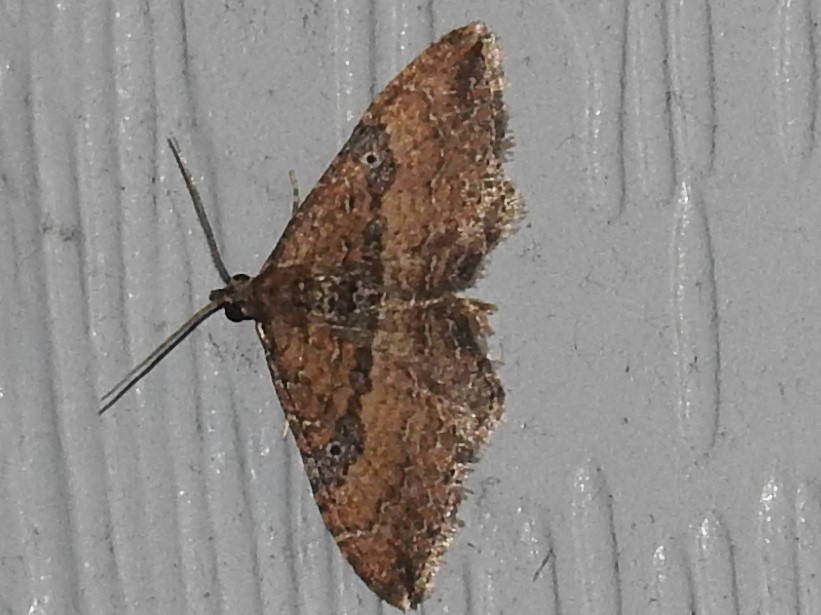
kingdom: Animalia
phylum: Arthropoda
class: Insecta
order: Lepidoptera
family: Geometridae
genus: Orthonama
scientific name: Orthonama obstipata
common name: The gem
